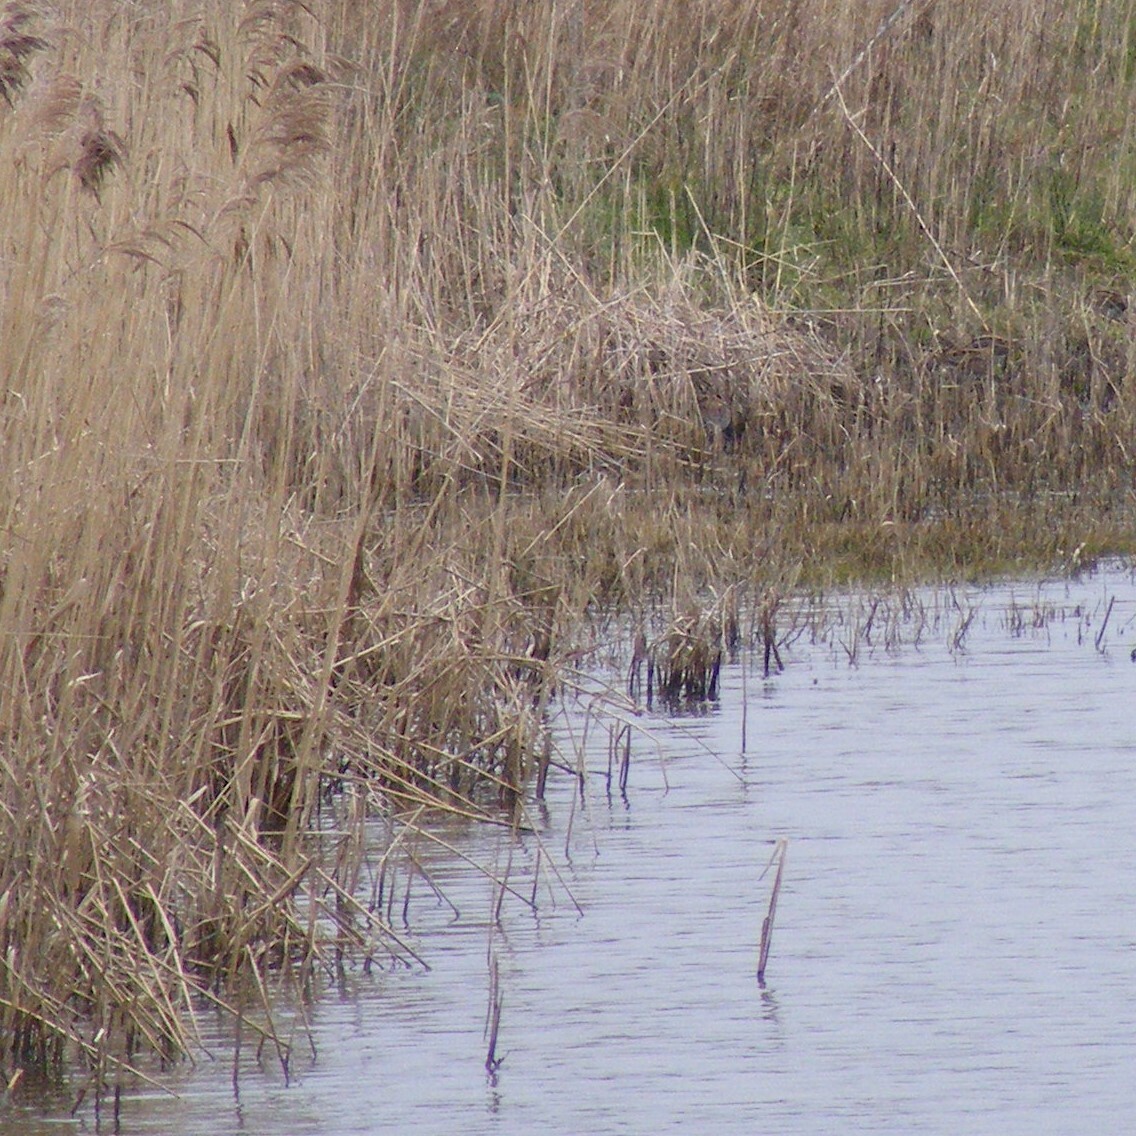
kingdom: Animalia
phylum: Chordata
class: Aves
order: Charadriiformes
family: Scolopacidae
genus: Gallinago
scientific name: Gallinago gallinago
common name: Common snipe
